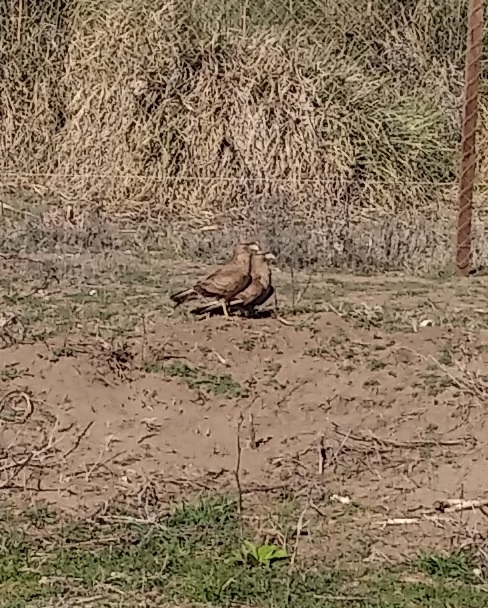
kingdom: Animalia
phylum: Chordata
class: Aves
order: Falconiformes
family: Falconidae
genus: Daptrius
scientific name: Daptrius
